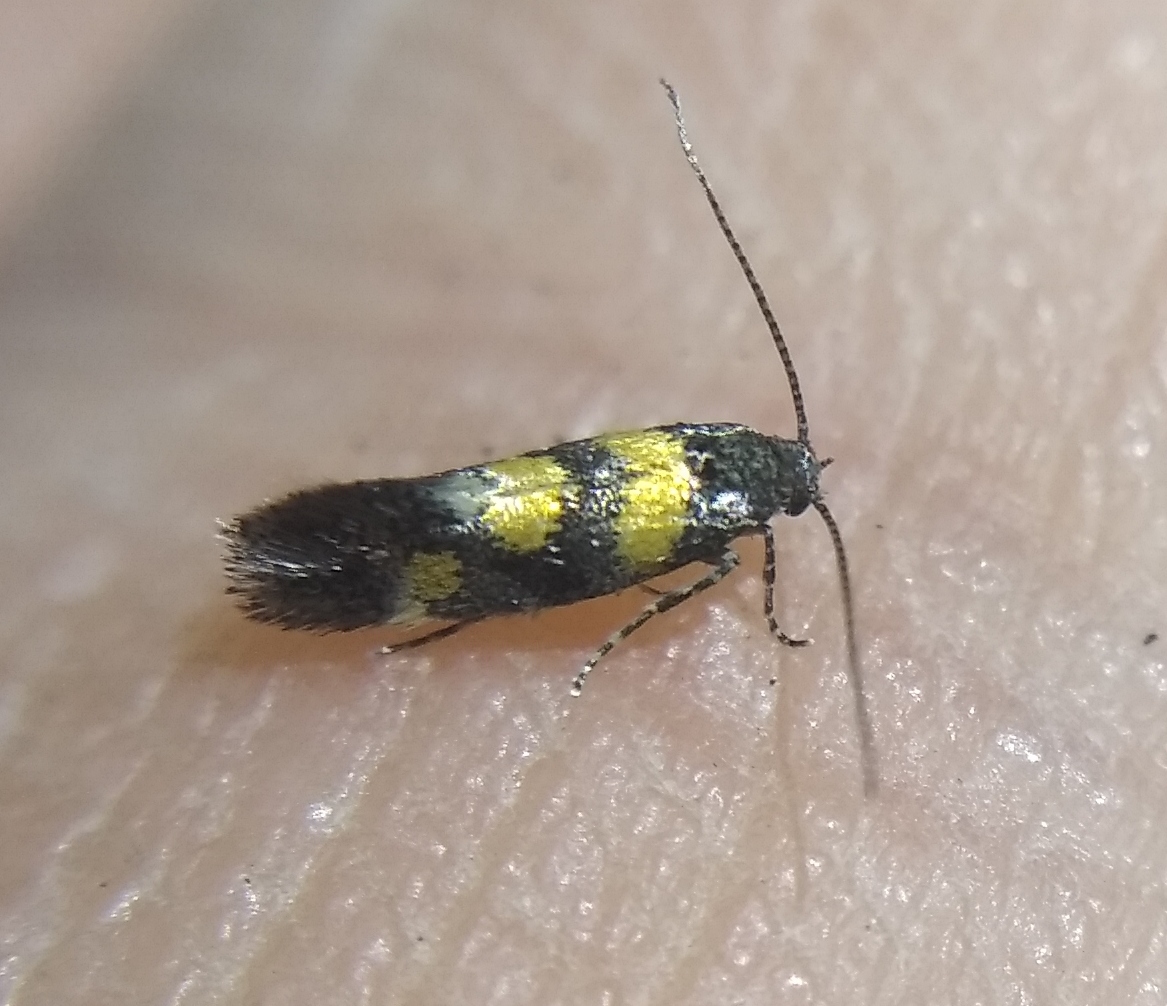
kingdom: Animalia
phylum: Arthropoda
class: Insecta
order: Lepidoptera
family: Gelechiidae
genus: Chrysoesthia
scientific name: Chrysoesthia sexguttella
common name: Moth
